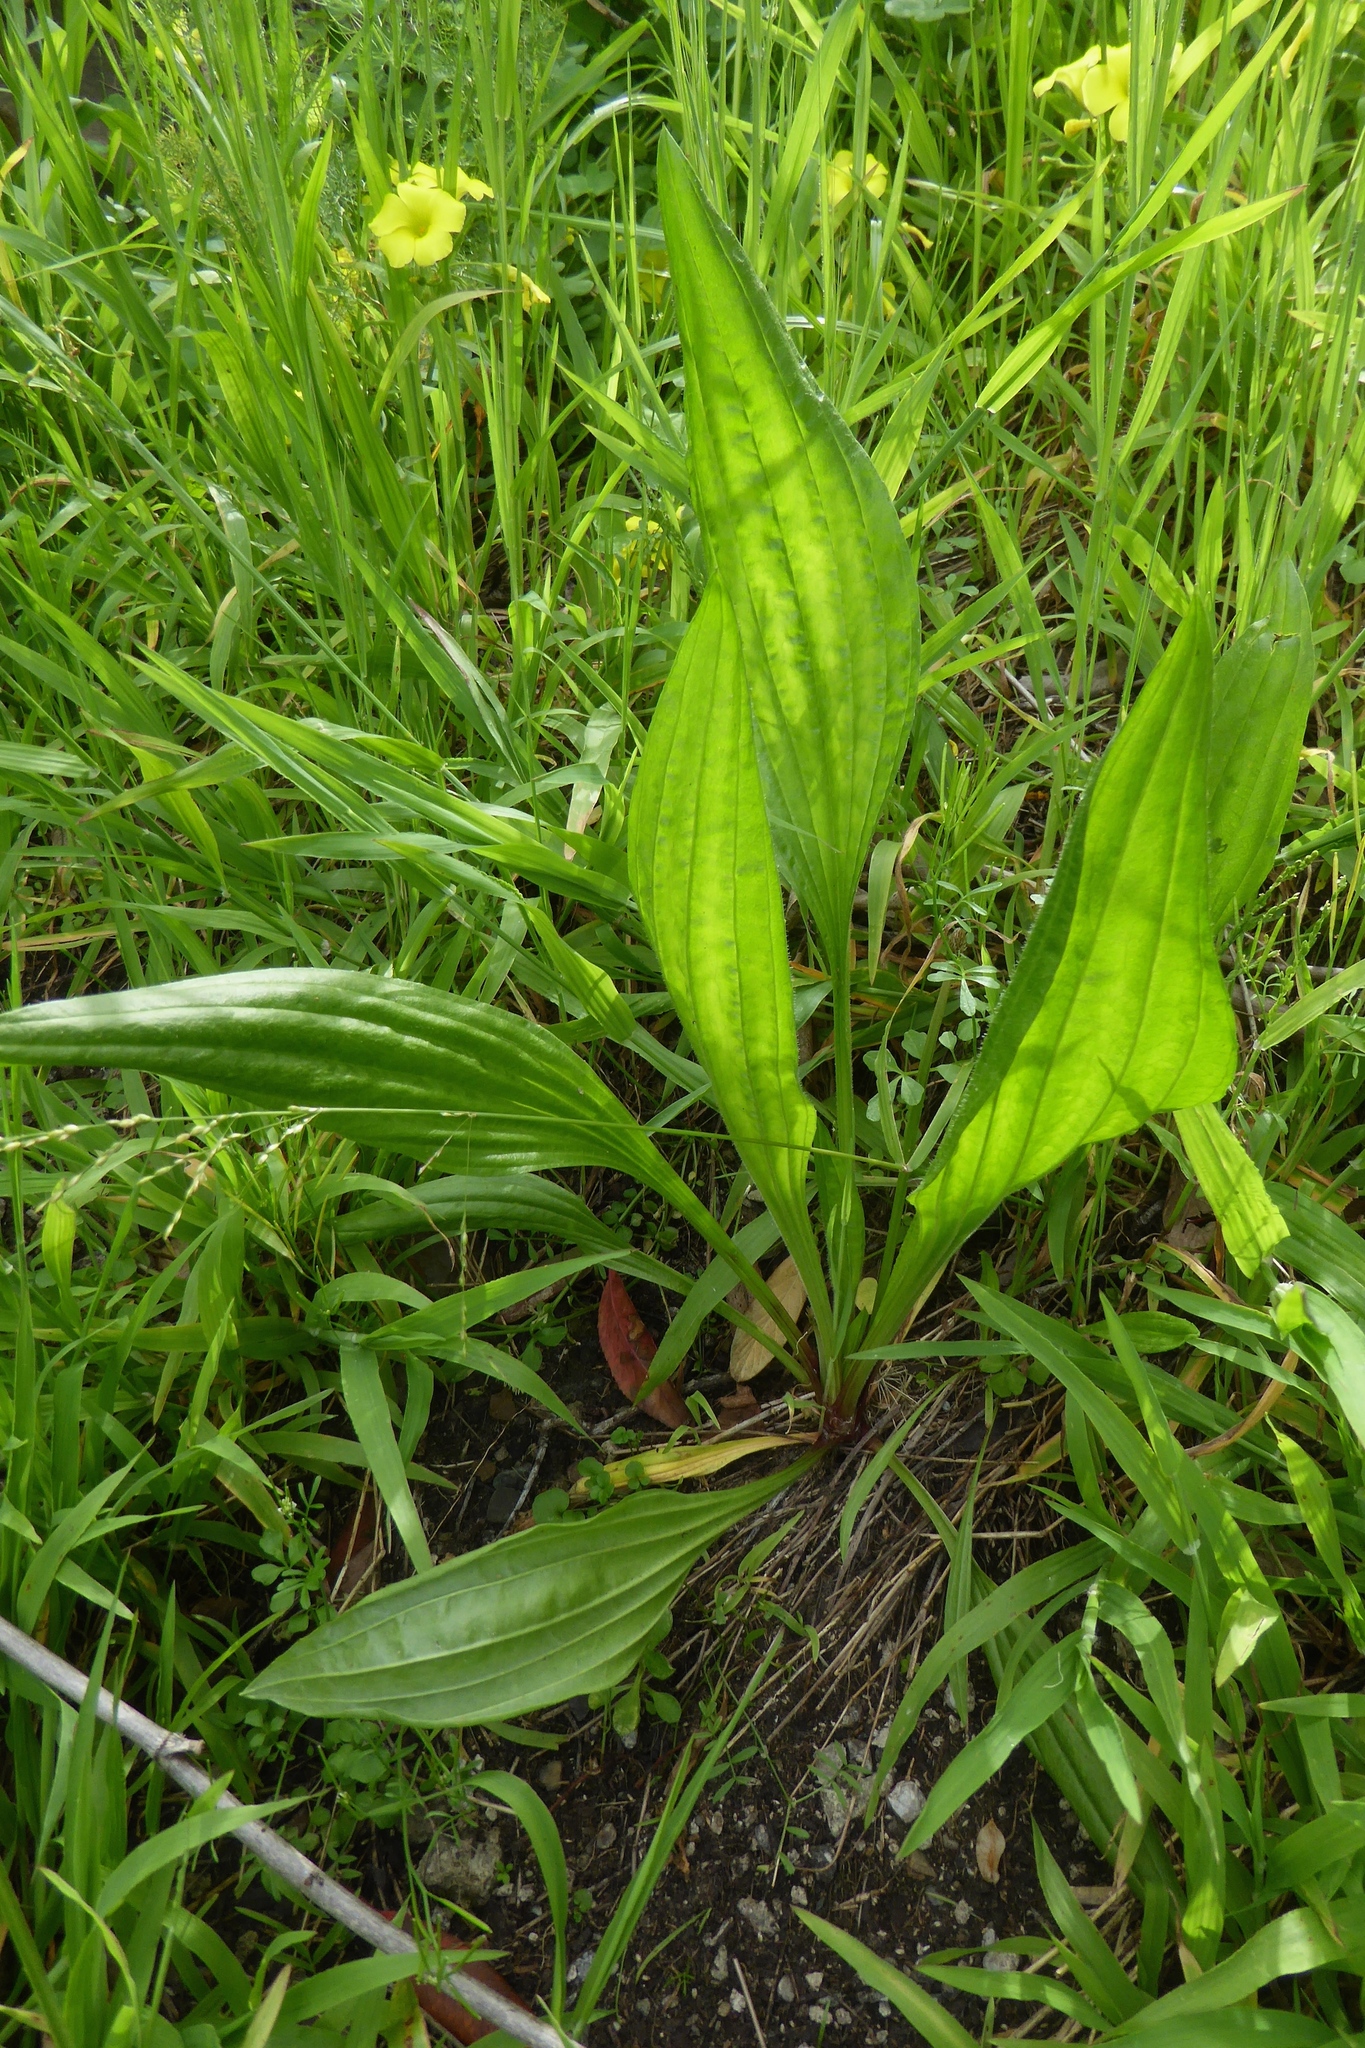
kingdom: Plantae
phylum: Tracheophyta
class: Magnoliopsida
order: Lamiales
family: Plantaginaceae
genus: Plantago
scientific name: Plantago lanceolata
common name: Ribwort plantain
